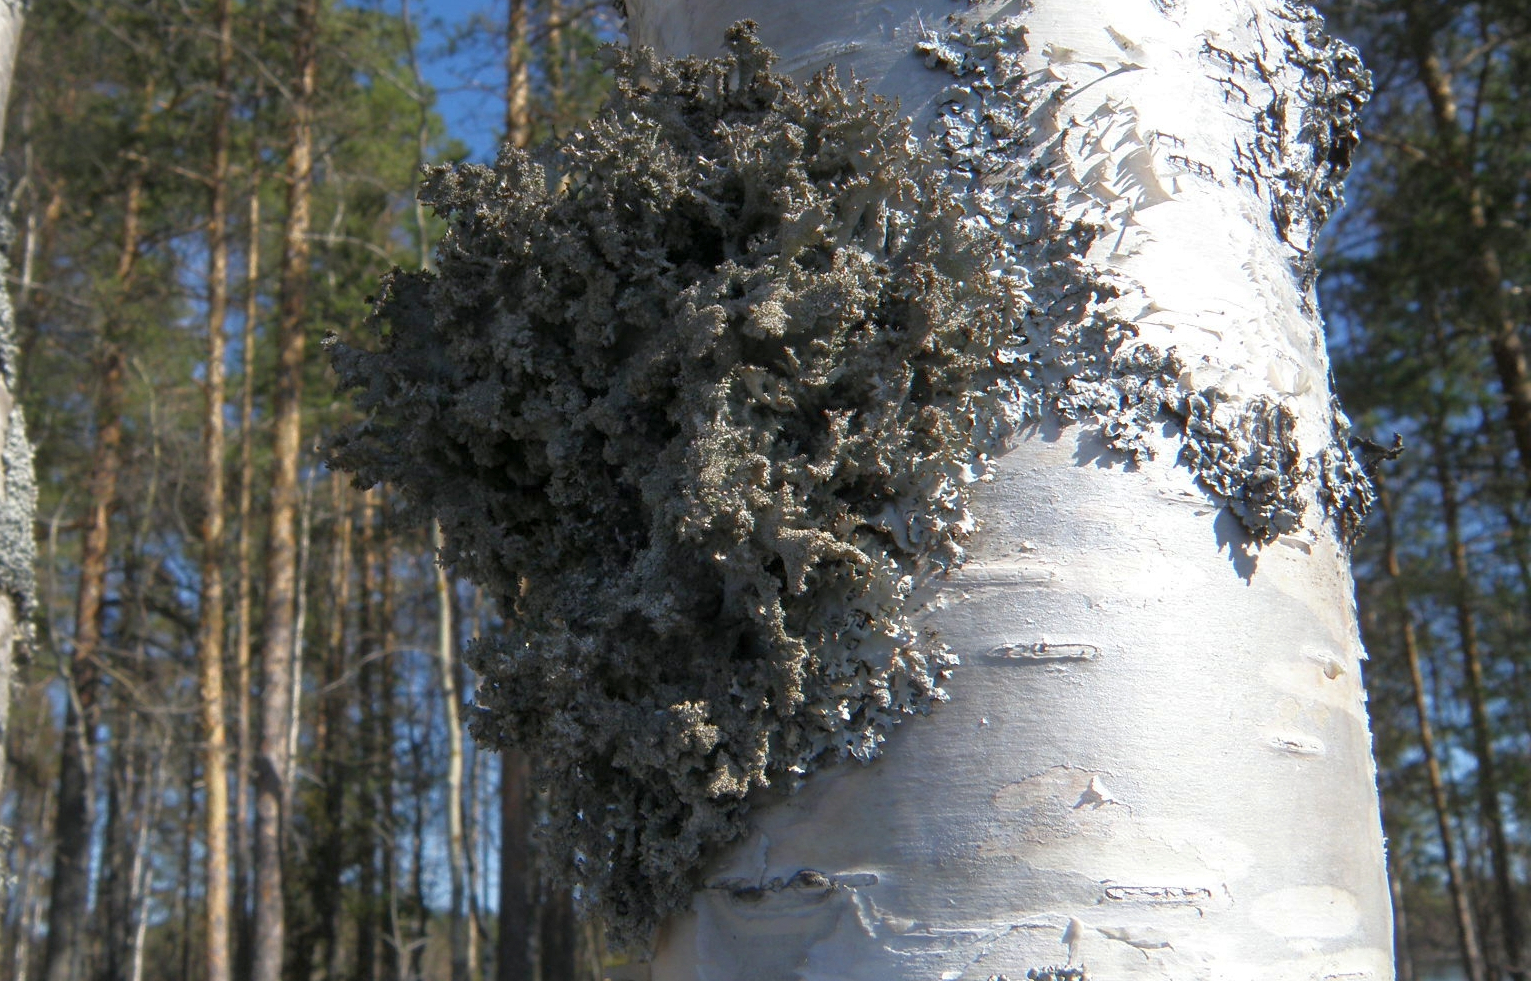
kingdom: Fungi
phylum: Ascomycota
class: Lecanoromycetes
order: Lecanorales
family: Parmeliaceae
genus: Platismatia
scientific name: Platismatia glauca
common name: Varied rag lichen
